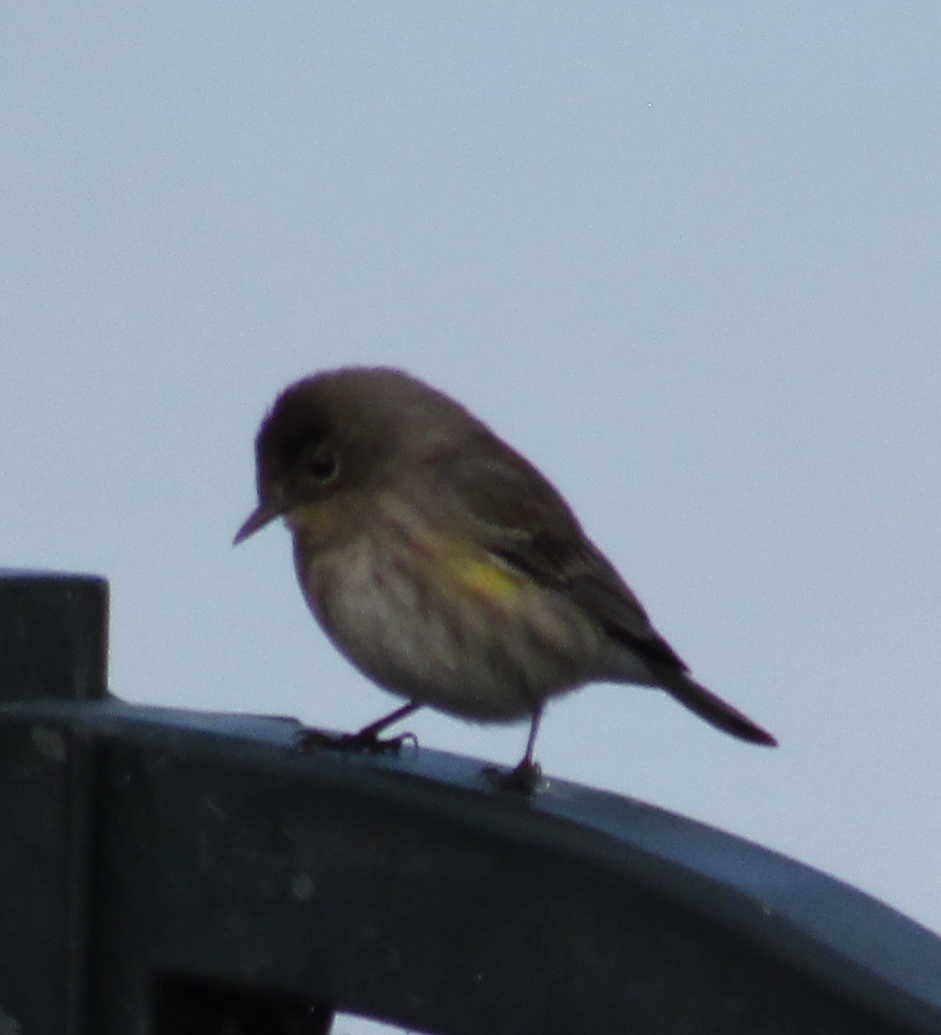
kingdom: Animalia
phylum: Chordata
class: Aves
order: Passeriformes
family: Parulidae
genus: Setophaga
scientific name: Setophaga coronata
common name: Myrtle warbler
